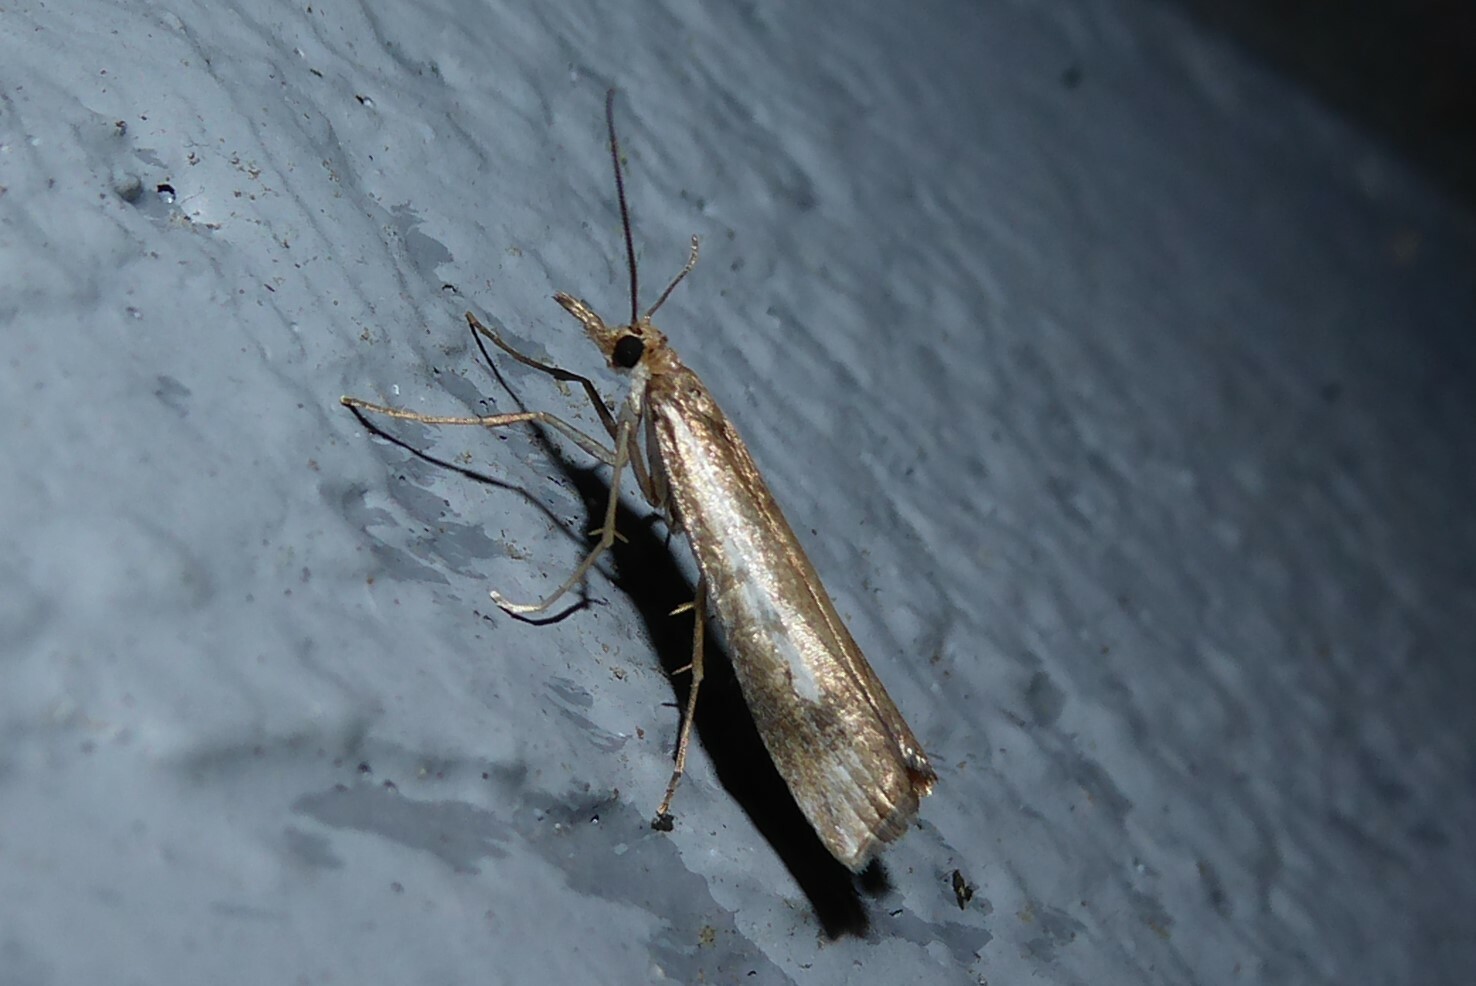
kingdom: Animalia
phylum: Arthropoda
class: Insecta
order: Lepidoptera
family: Crambidae
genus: Orocrambus
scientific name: Orocrambus vulgaris
